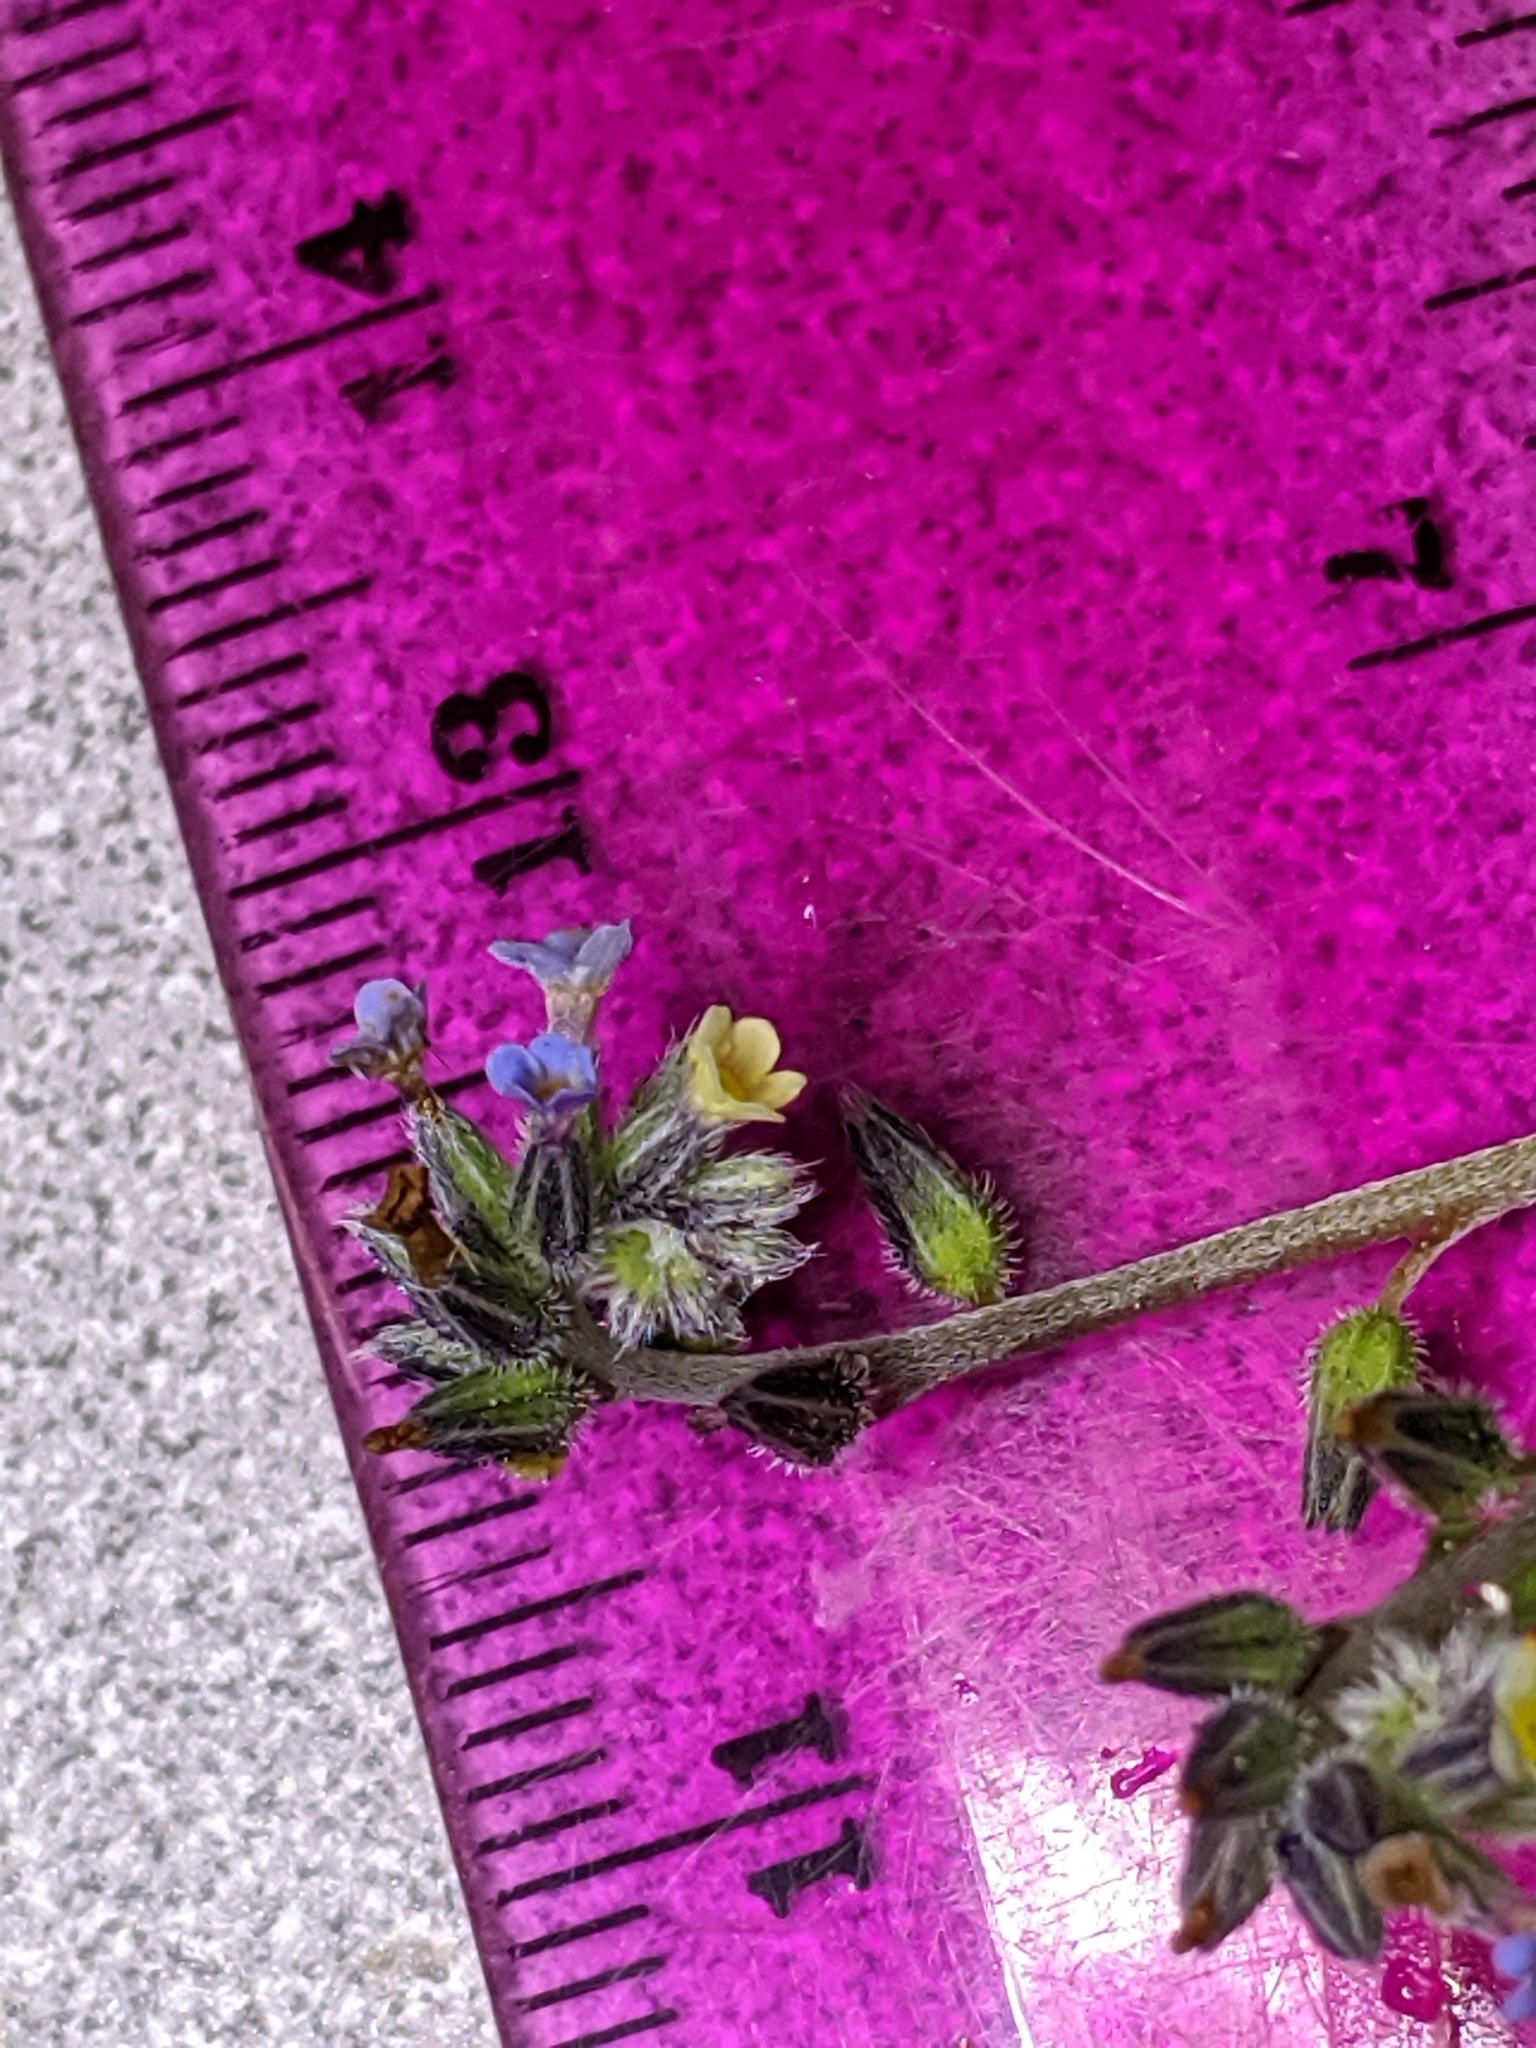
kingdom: Plantae
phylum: Tracheophyta
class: Magnoliopsida
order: Boraginales
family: Boraginaceae
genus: Myosotis
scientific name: Myosotis discolor
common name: Changing forget-me-not
